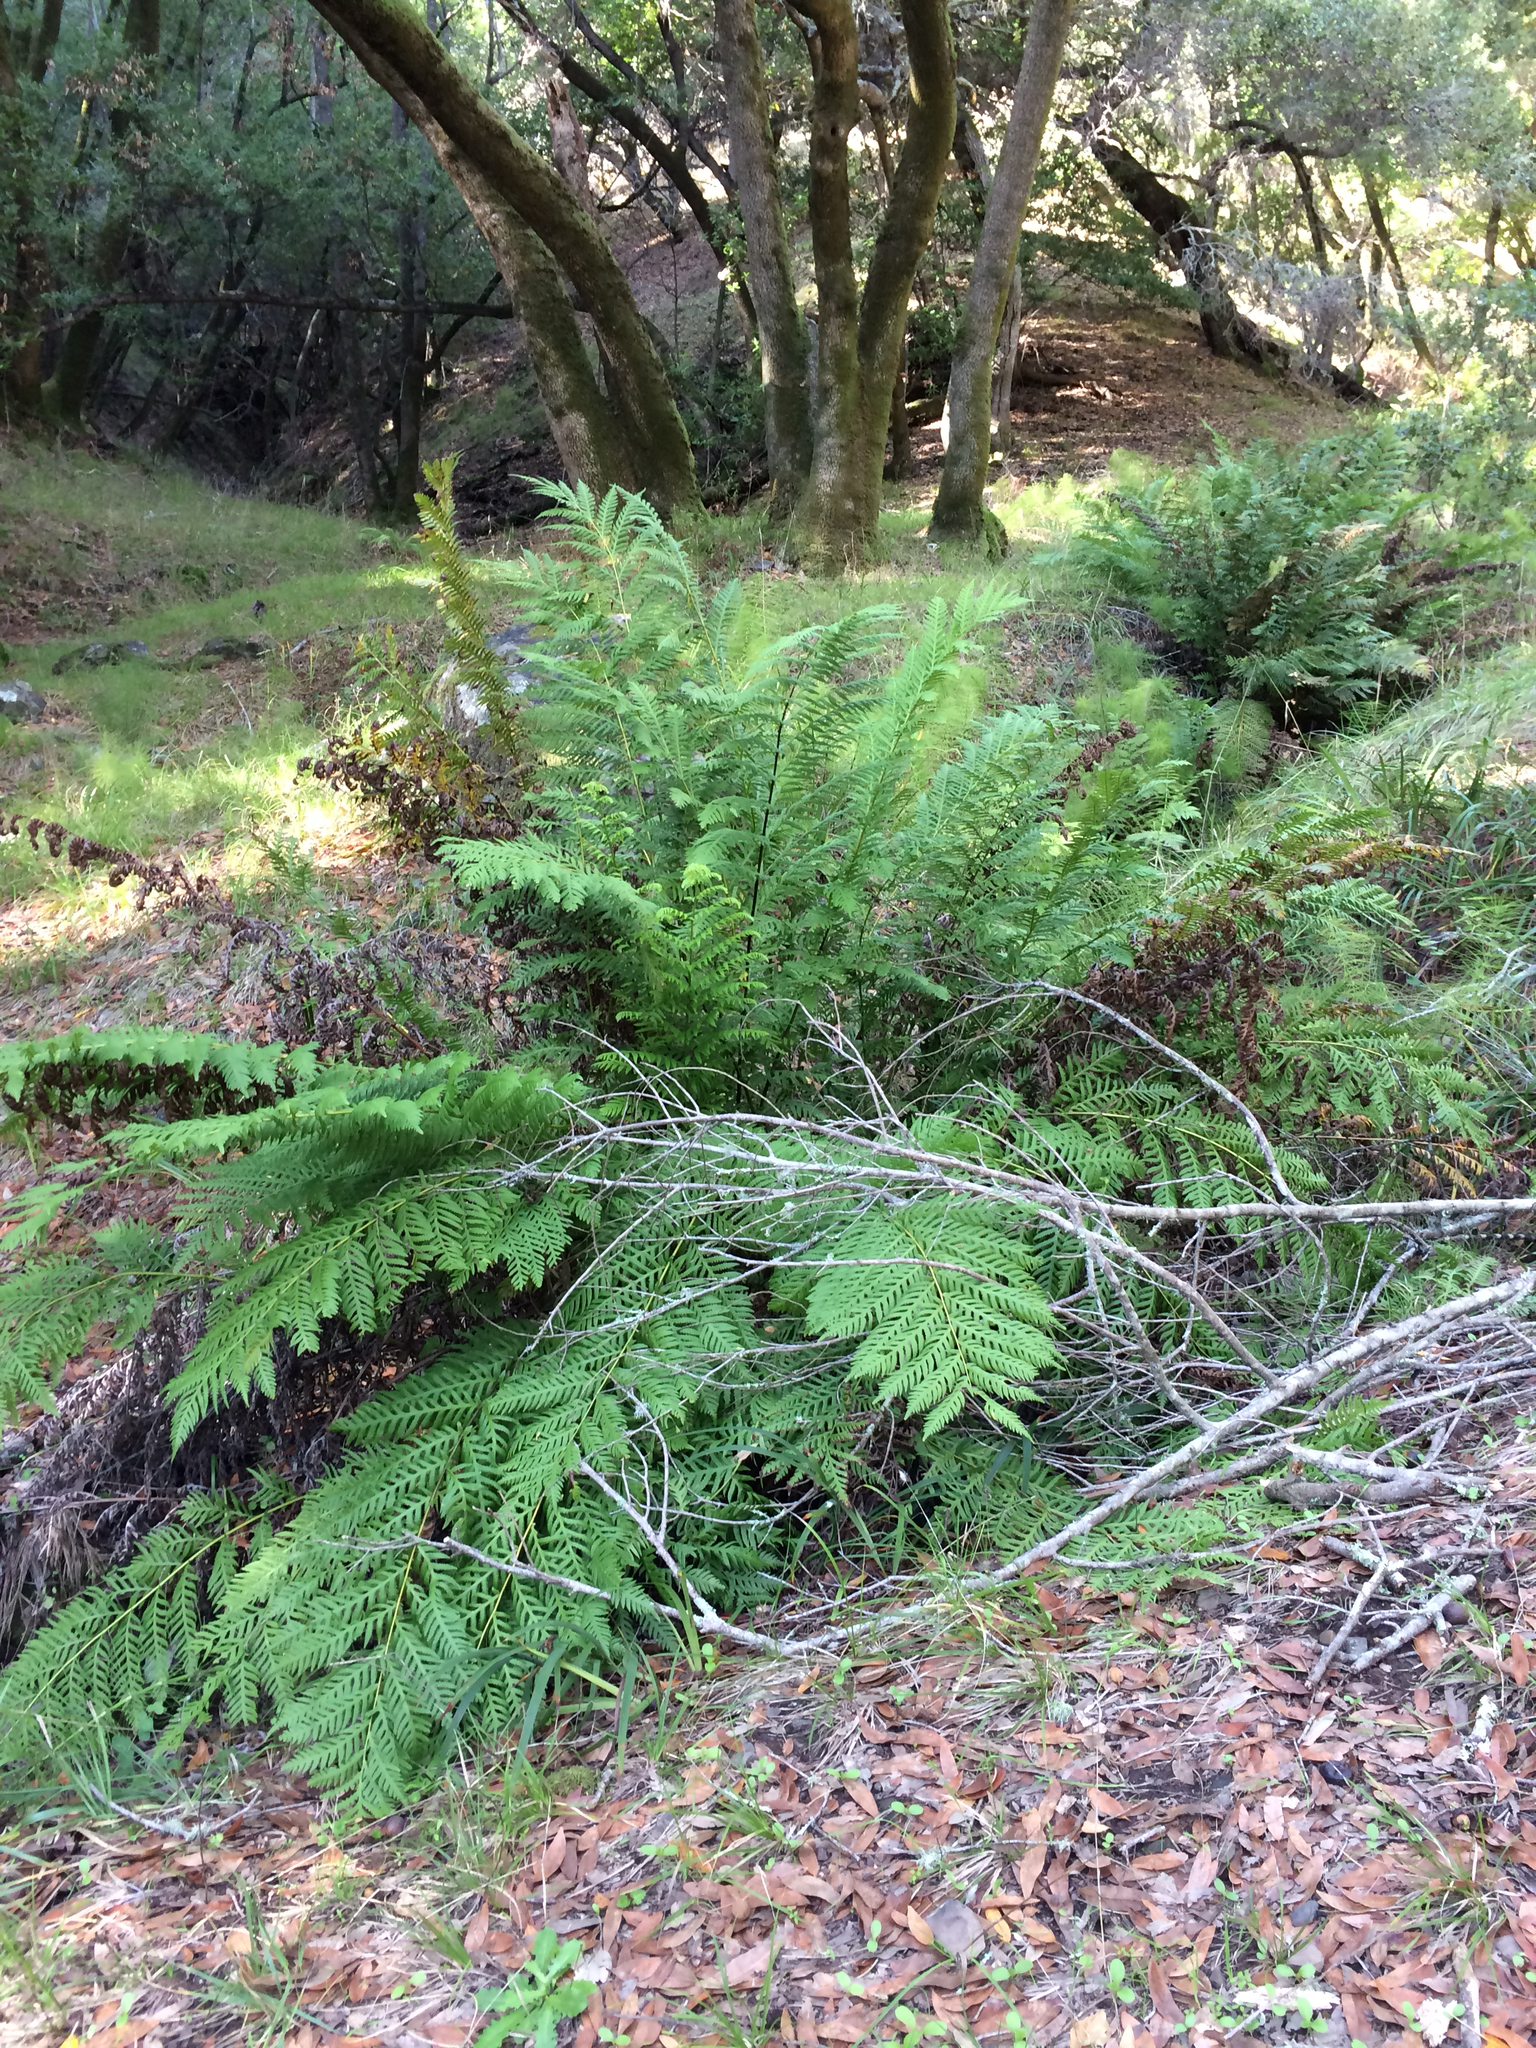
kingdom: Plantae
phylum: Tracheophyta
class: Polypodiopsida
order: Polypodiales
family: Blechnaceae
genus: Woodwardia
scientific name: Woodwardia fimbriata
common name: Giant chain fern
